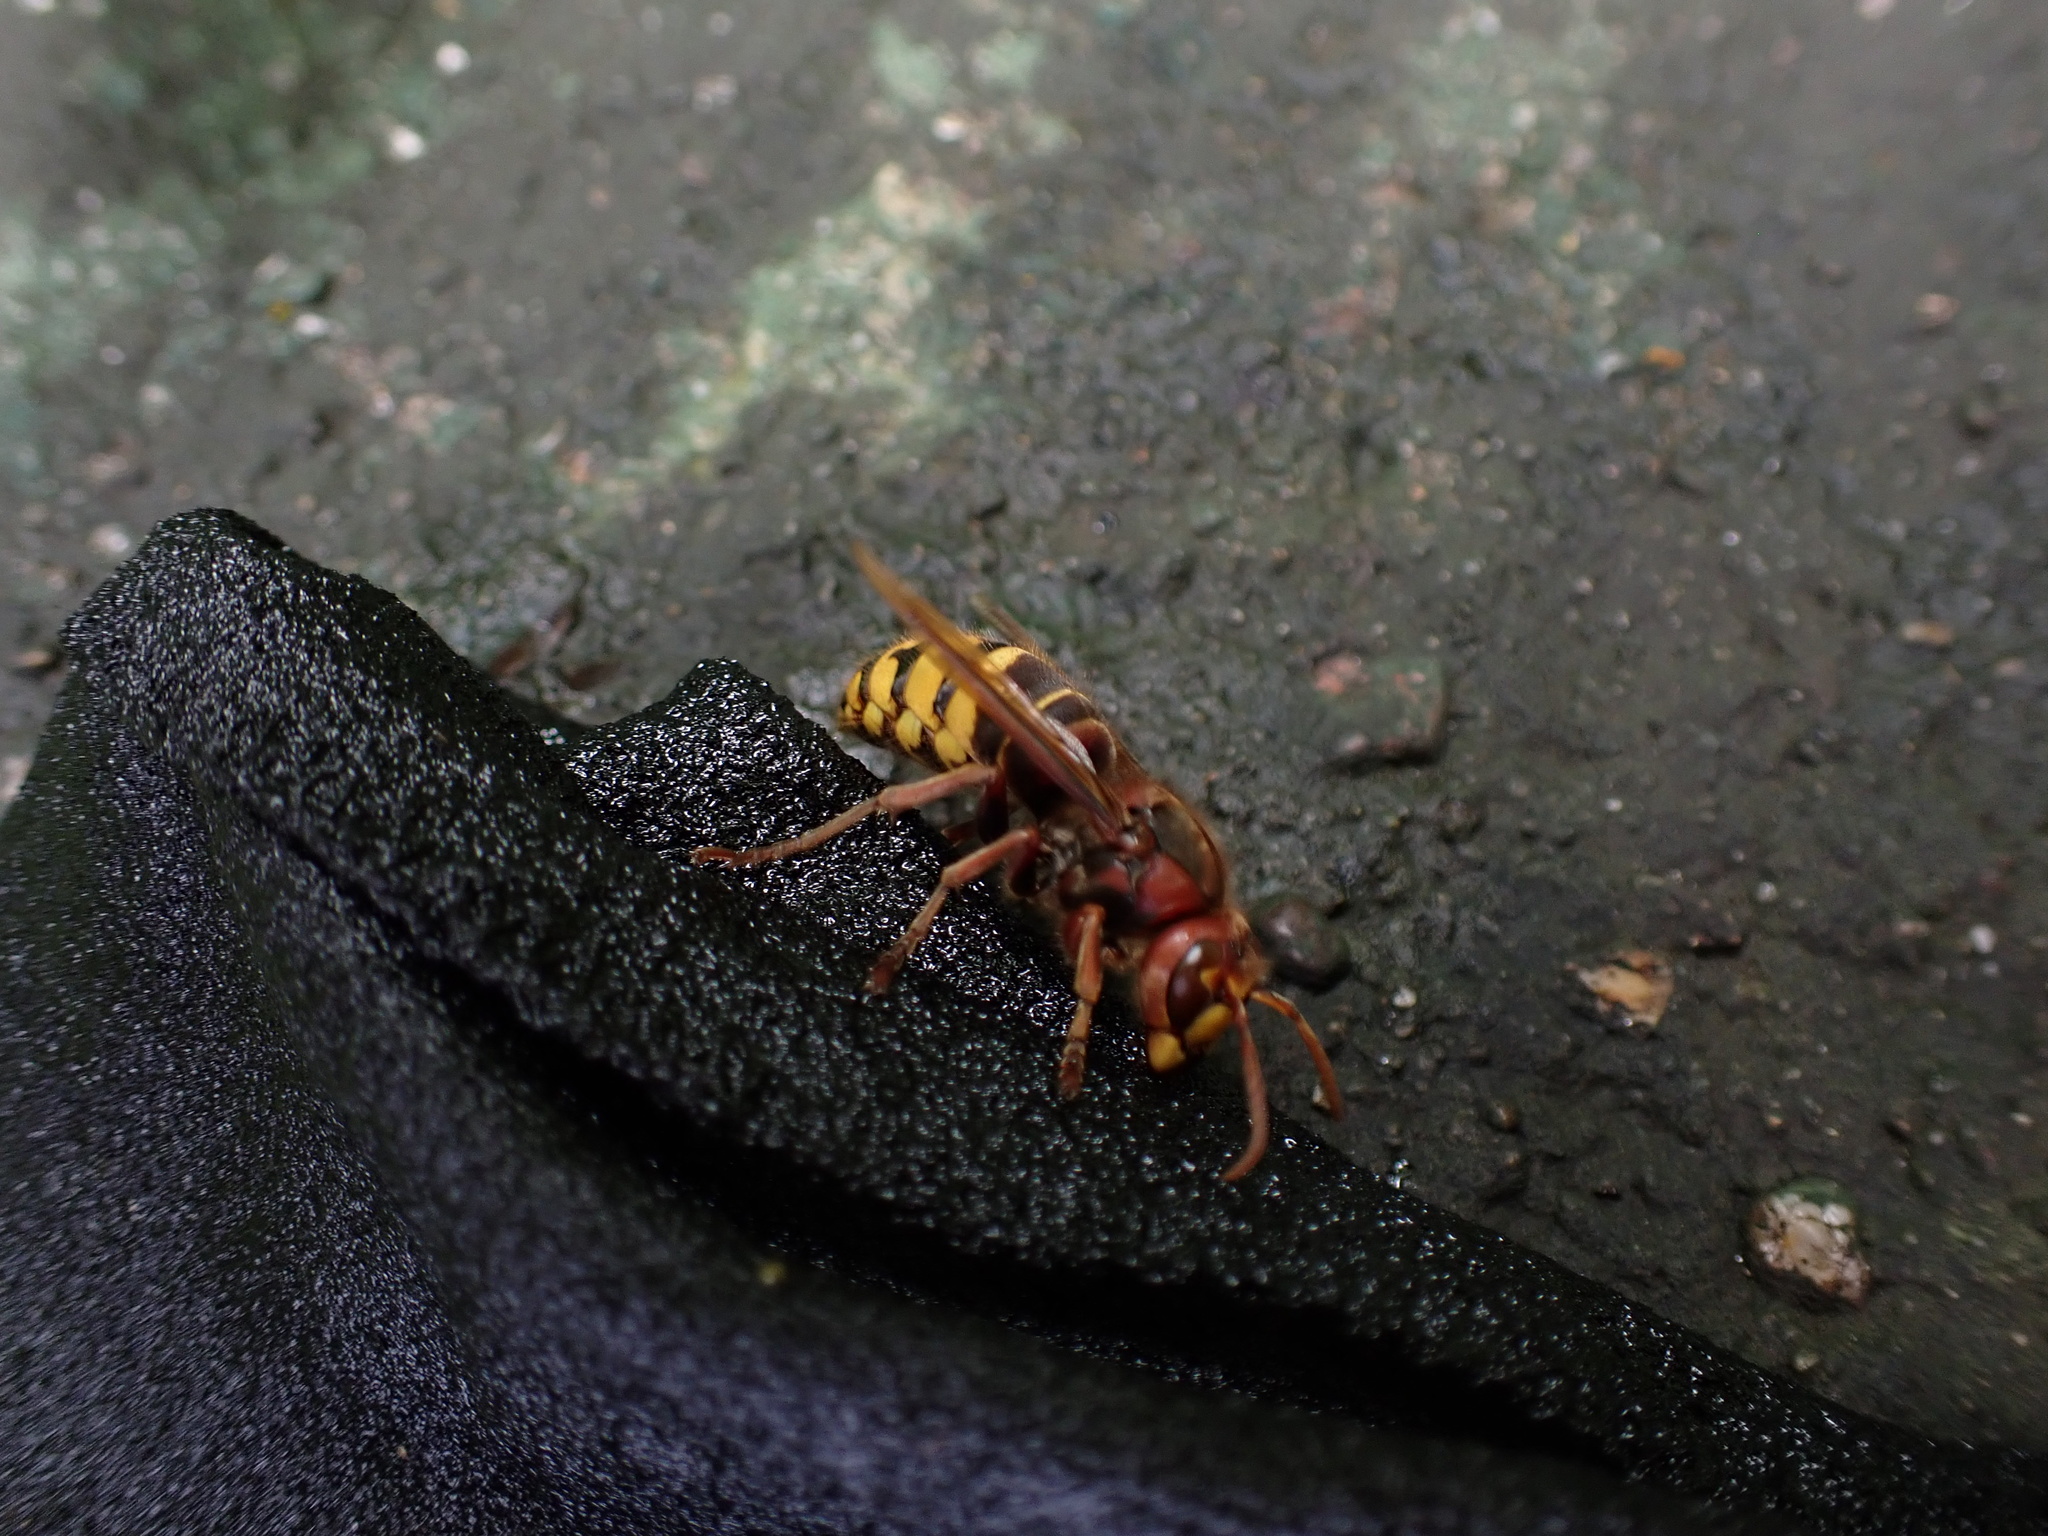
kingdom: Animalia
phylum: Arthropoda
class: Insecta
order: Hymenoptera
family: Vespidae
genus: Vespa
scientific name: Vespa crabro
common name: Hornet
